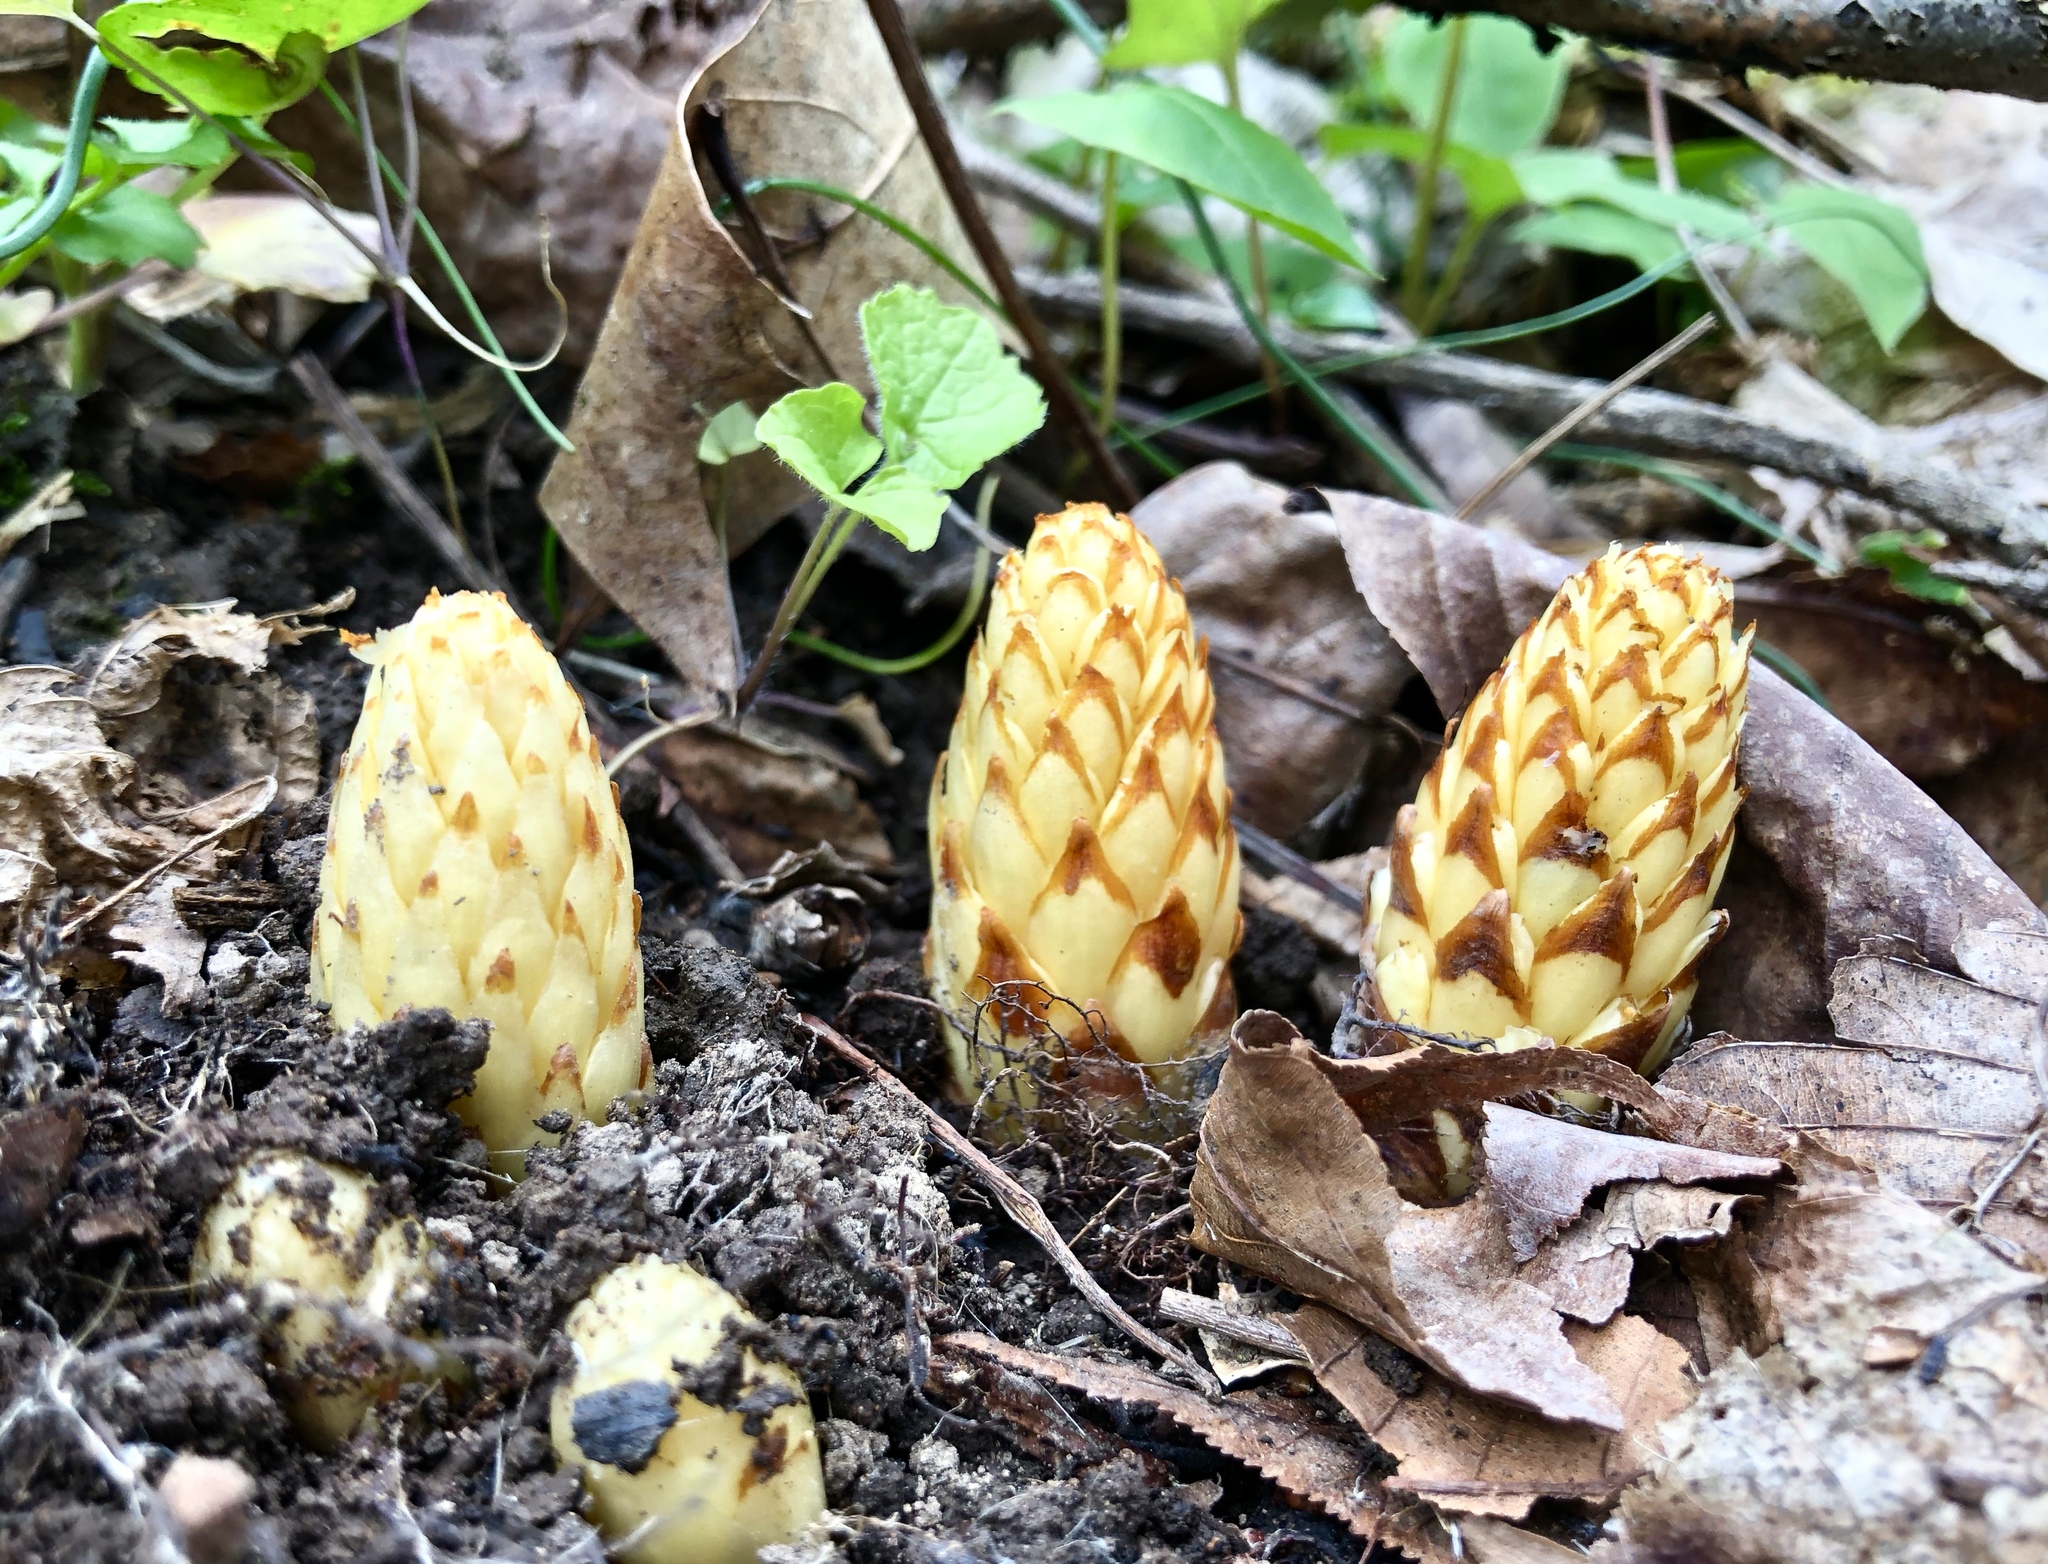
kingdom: Plantae
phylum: Tracheophyta
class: Magnoliopsida
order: Lamiales
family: Orobanchaceae
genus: Conopholis
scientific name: Conopholis americana
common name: American cancer-root
